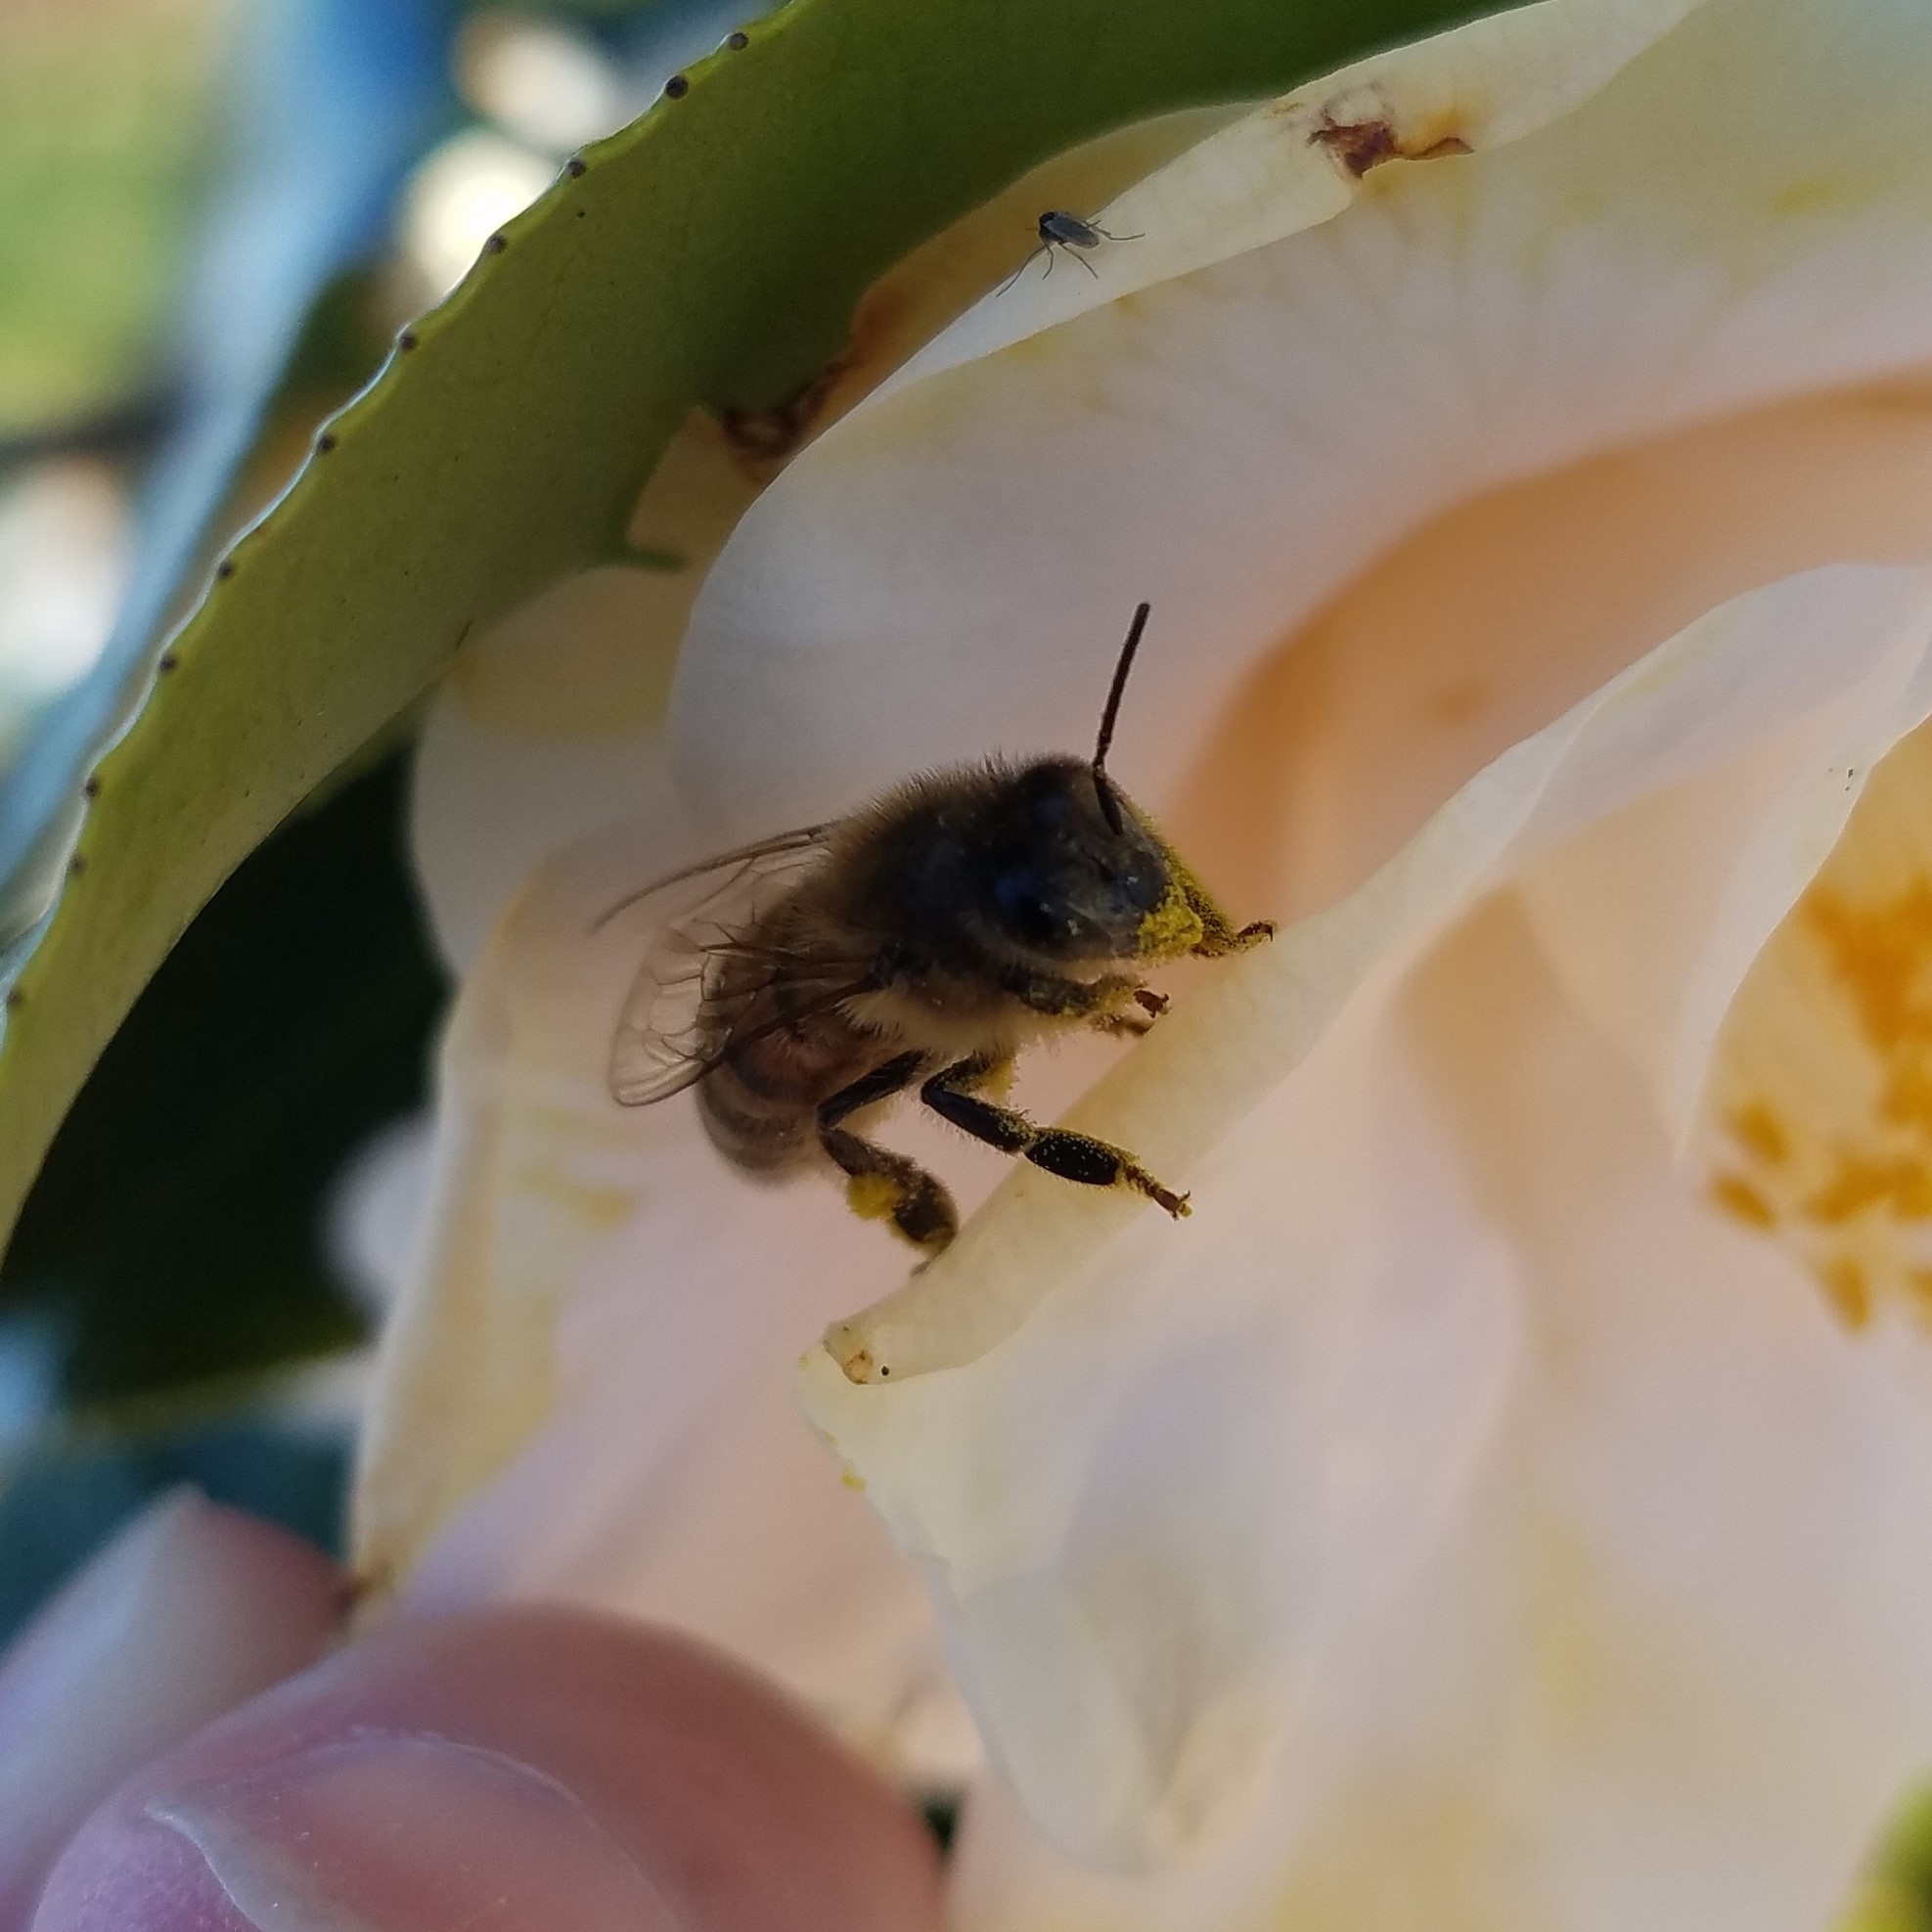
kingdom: Animalia
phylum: Arthropoda
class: Insecta
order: Hymenoptera
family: Apidae
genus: Apis
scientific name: Apis mellifera
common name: Honey bee
